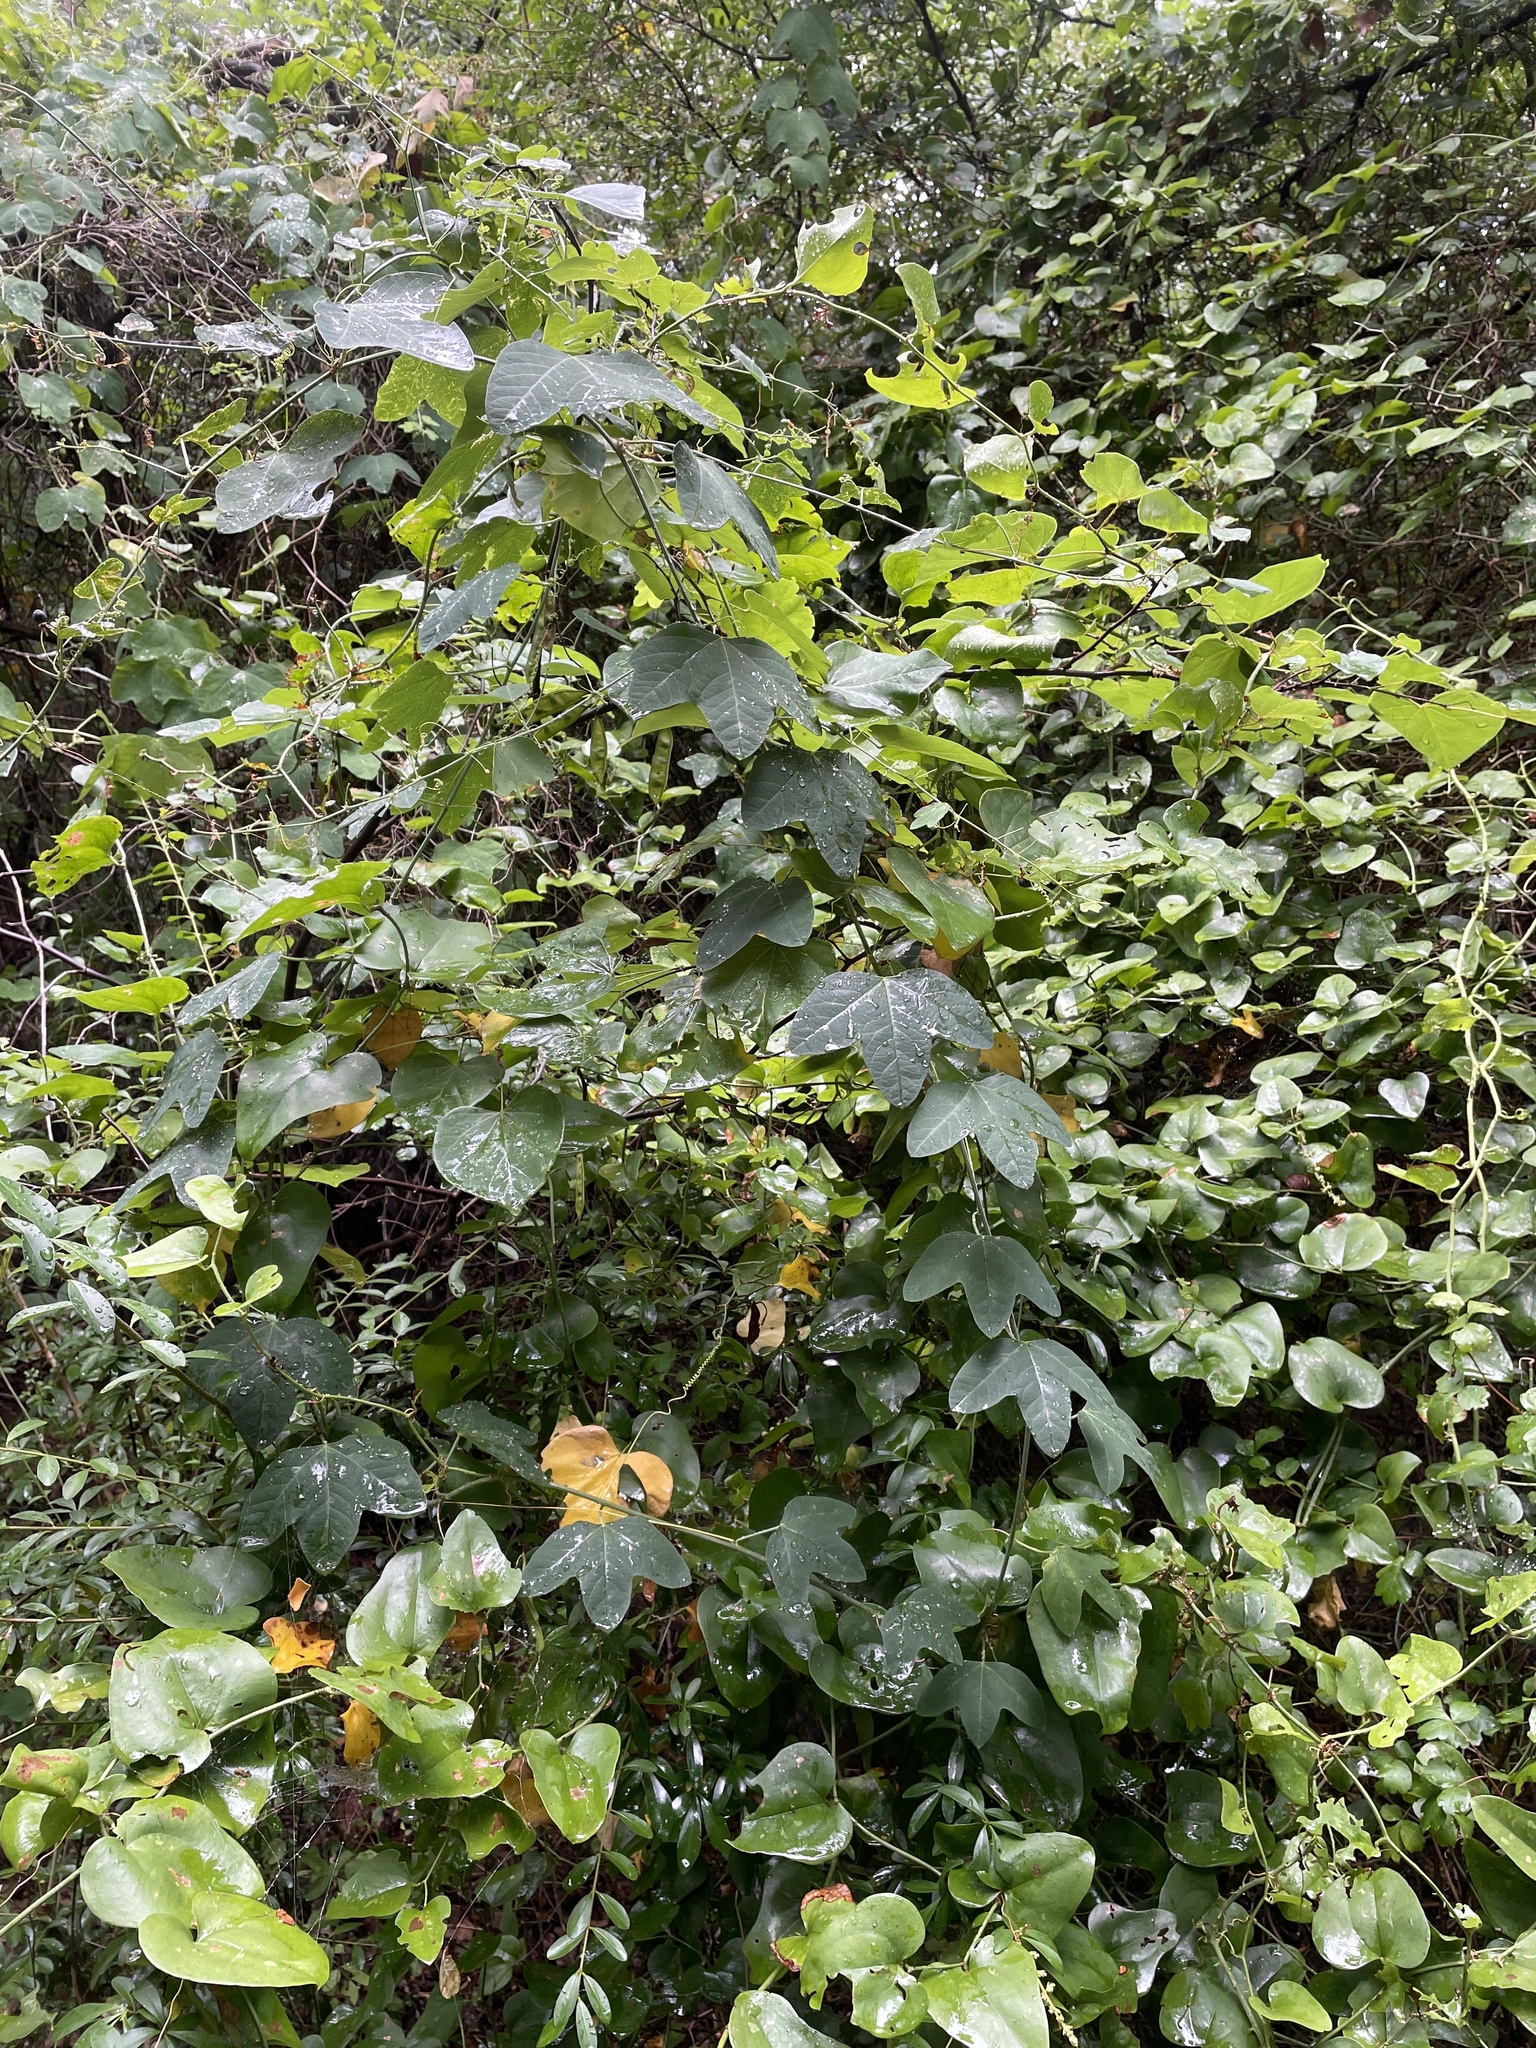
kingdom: Plantae
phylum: Tracheophyta
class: Magnoliopsida
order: Malpighiales
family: Passifloraceae
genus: Passiflora
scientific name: Passiflora lutea
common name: Yellow passionflower
